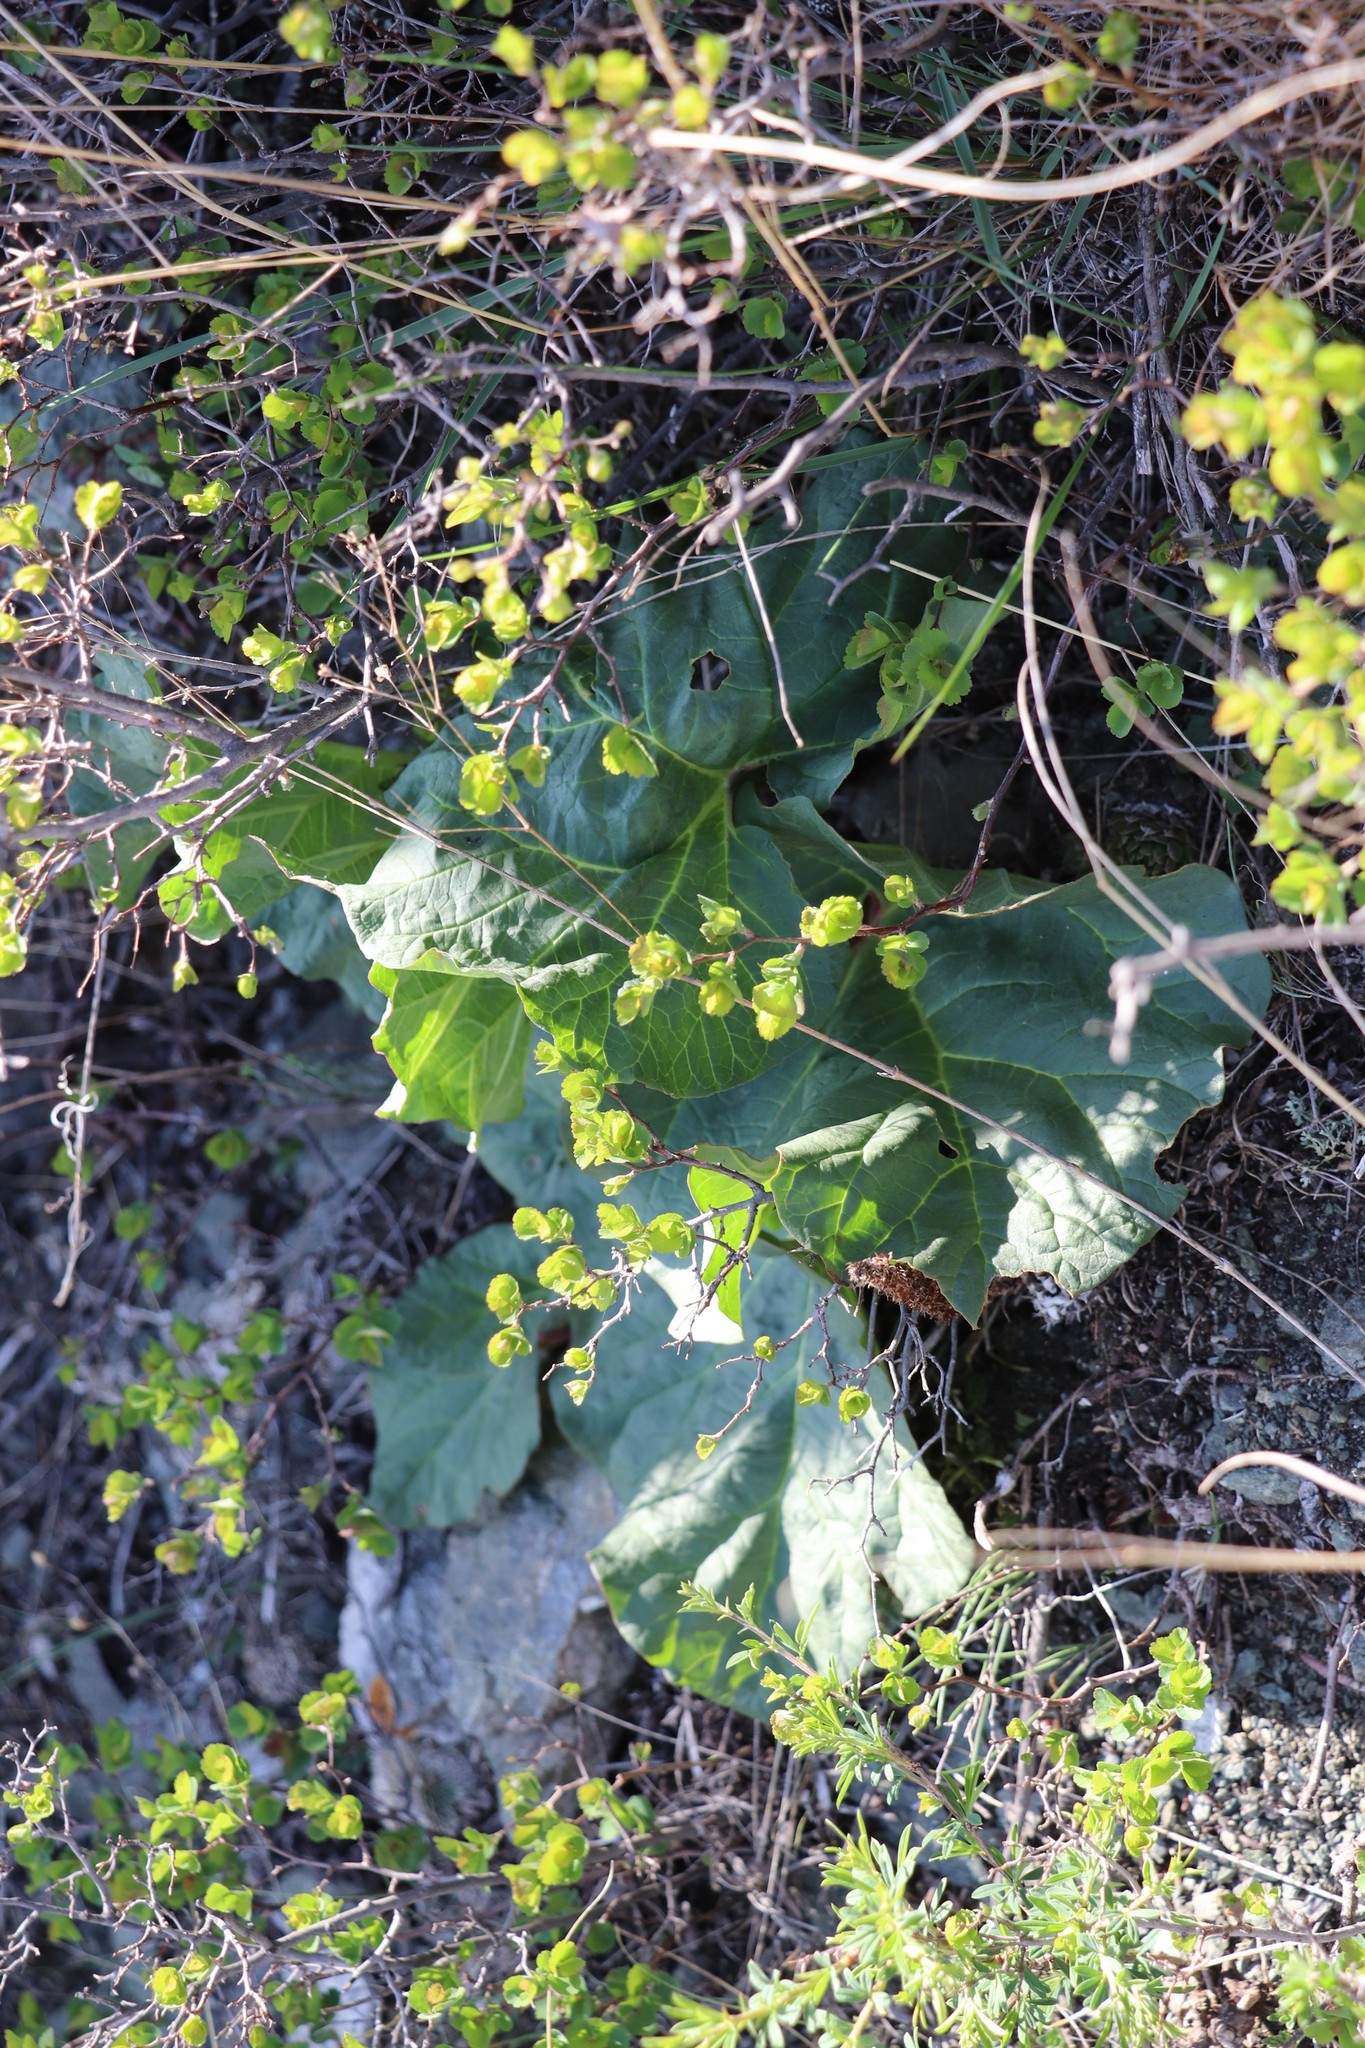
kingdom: Plantae
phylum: Tracheophyta
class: Magnoliopsida
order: Caryophyllales
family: Polygonaceae
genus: Rheum
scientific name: Rheum compactum
